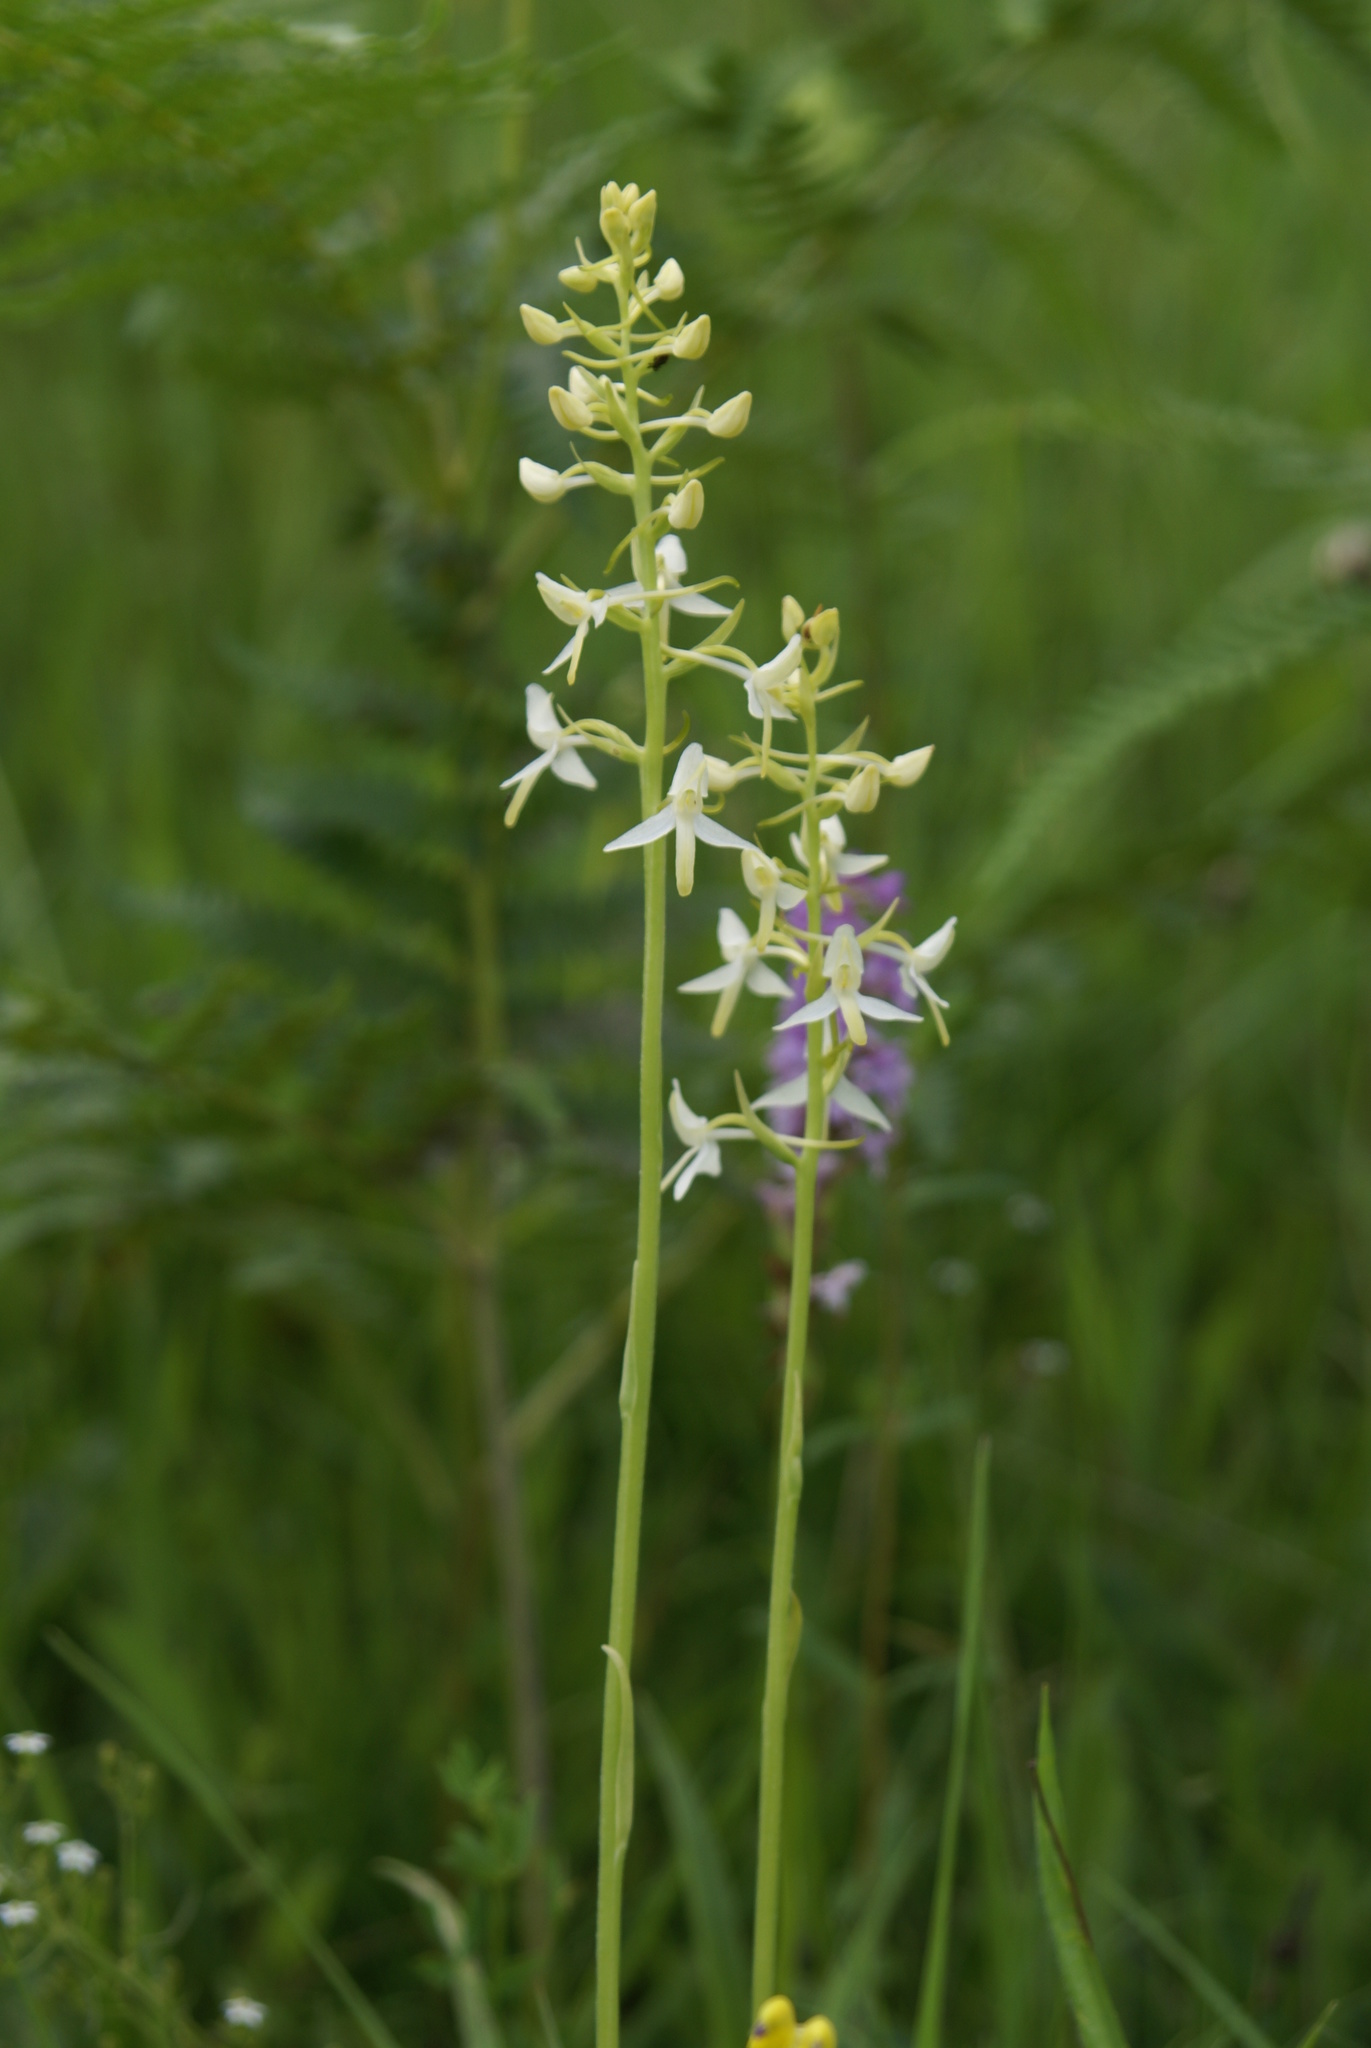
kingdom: Plantae
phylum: Tracheophyta
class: Liliopsida
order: Asparagales
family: Orchidaceae
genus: Platanthera
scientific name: Platanthera bifolia
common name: Lesser butterfly-orchid
